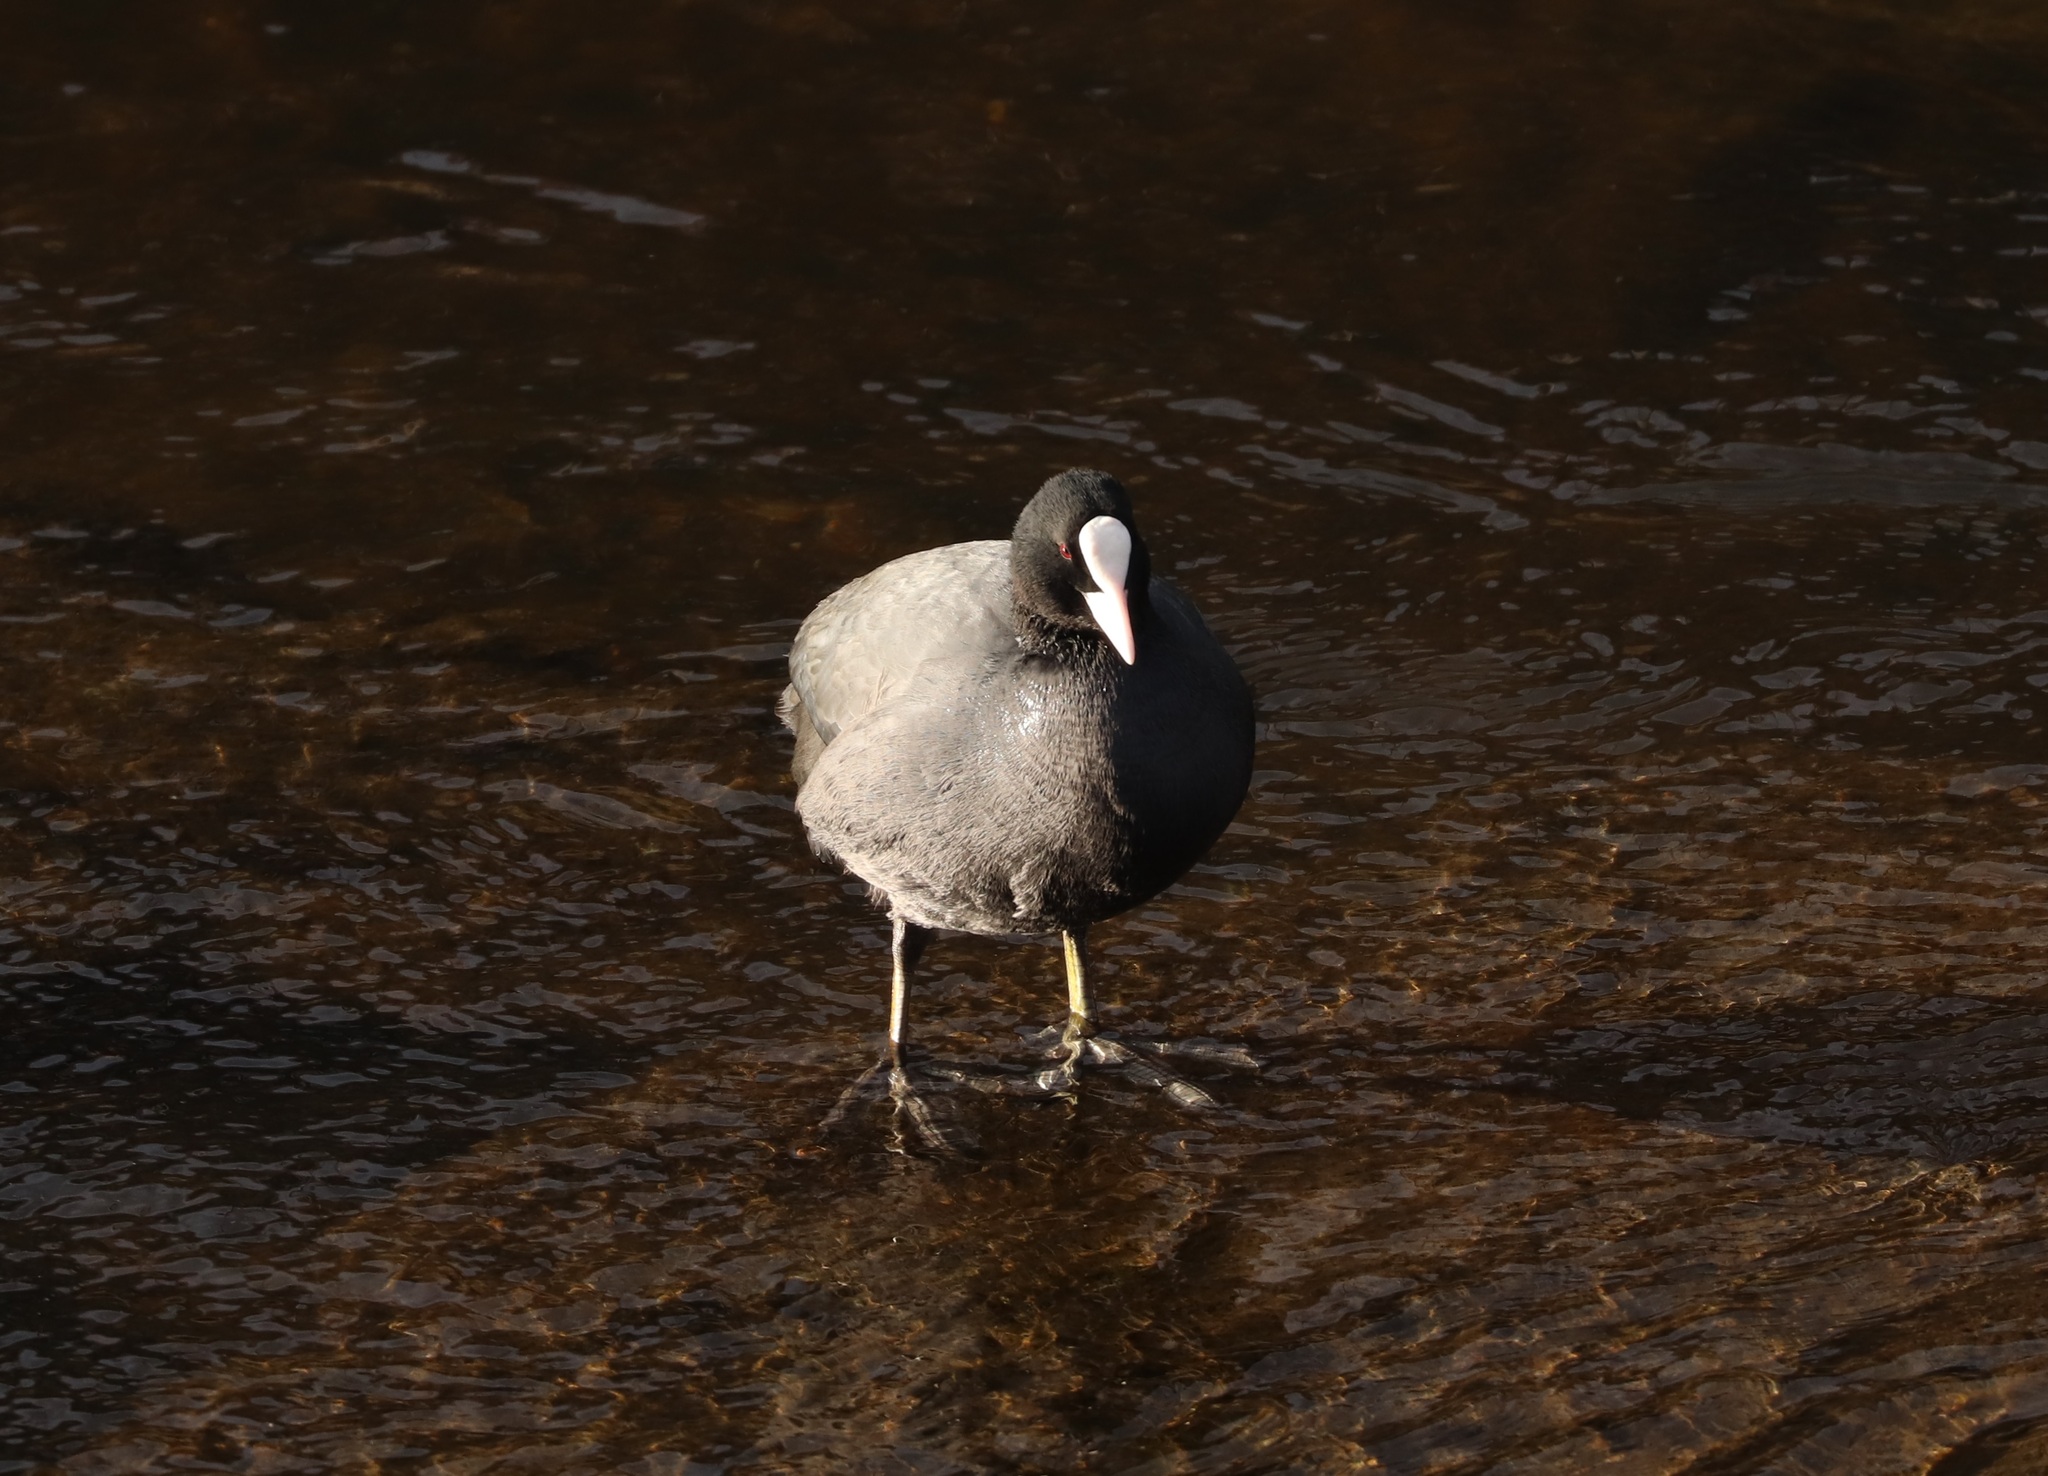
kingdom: Animalia
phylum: Chordata
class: Aves
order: Gruiformes
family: Rallidae
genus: Fulica
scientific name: Fulica atra
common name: Eurasian coot
